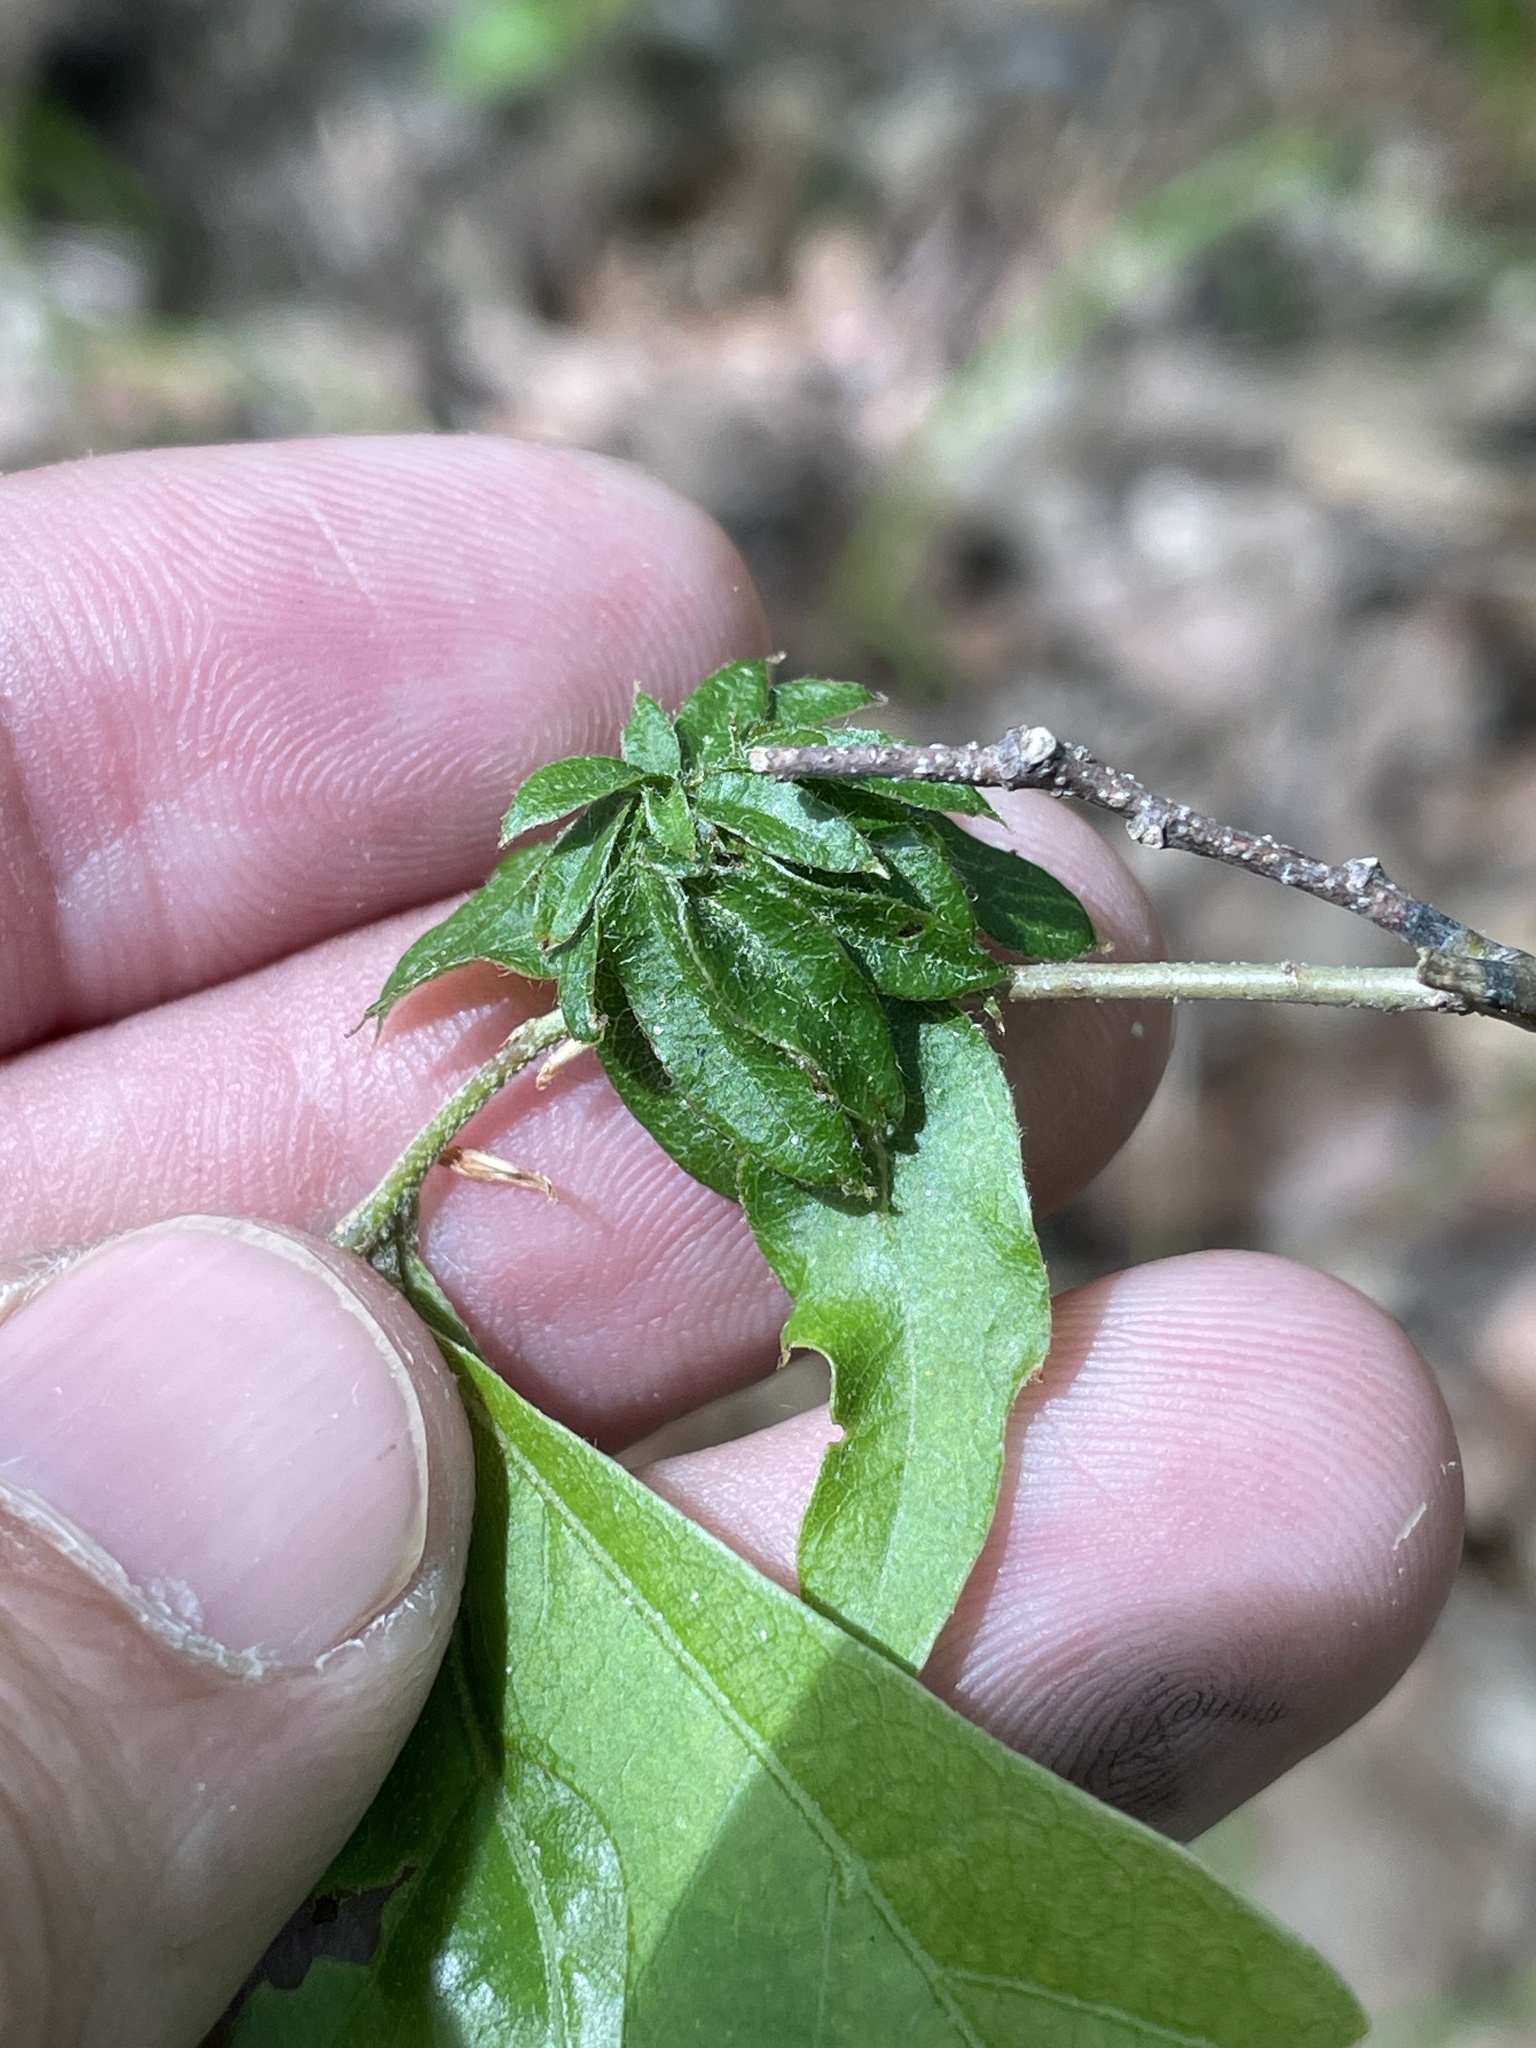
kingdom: Animalia
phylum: Arthropoda
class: Insecta
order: Hymenoptera
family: Cynipidae
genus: Andricus
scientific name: Andricus
